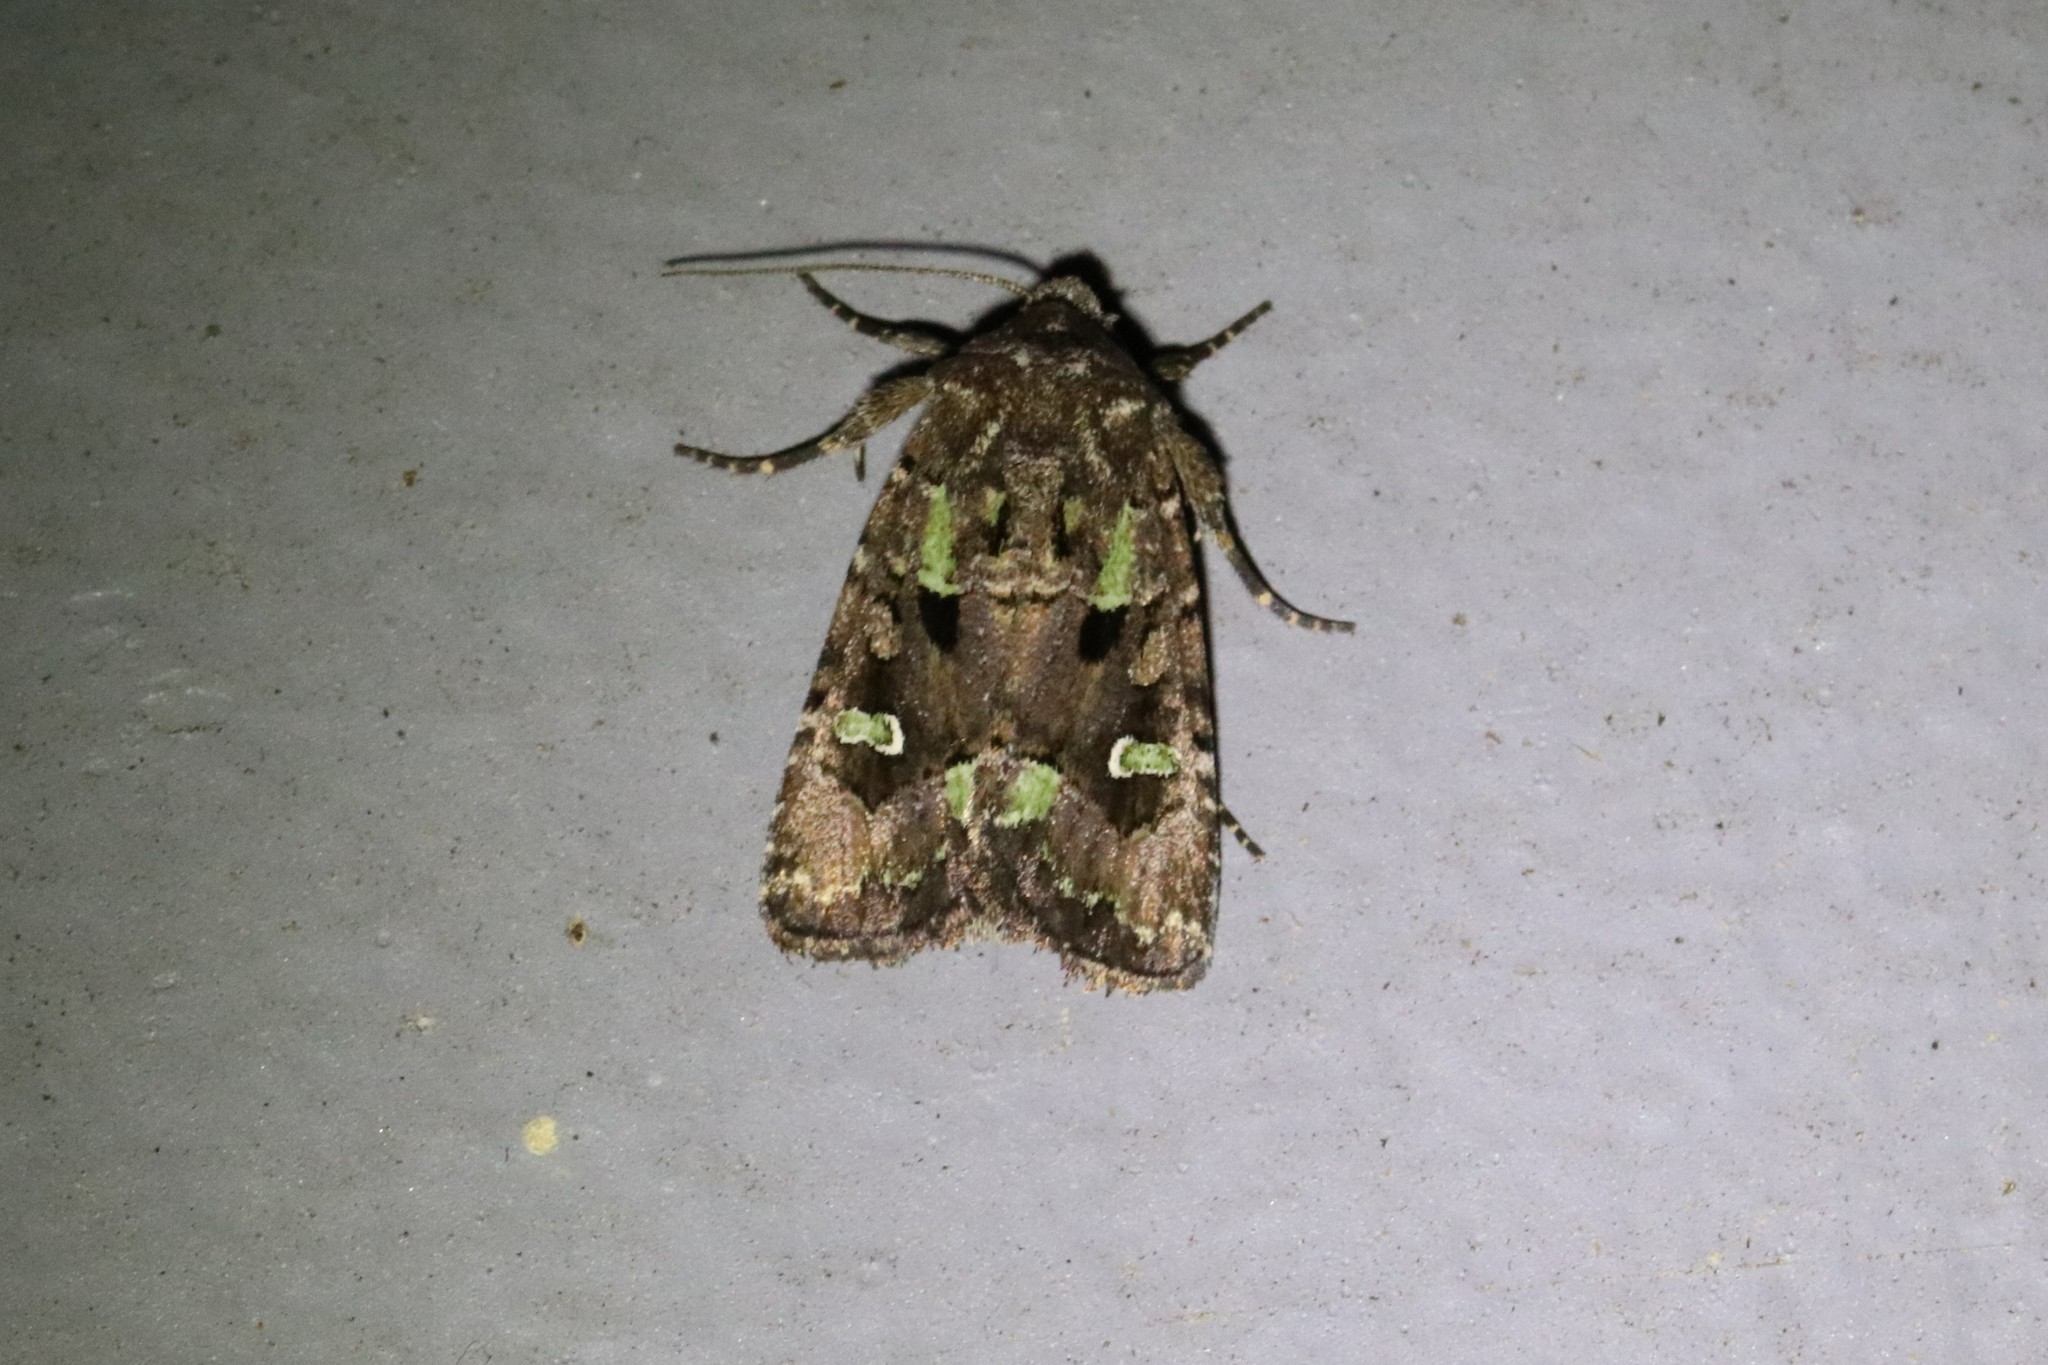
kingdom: Animalia
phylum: Arthropoda
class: Insecta
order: Lepidoptera
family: Noctuidae
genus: Lacinipolia
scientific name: Lacinipolia renigera
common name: Kidney-spotted minor
